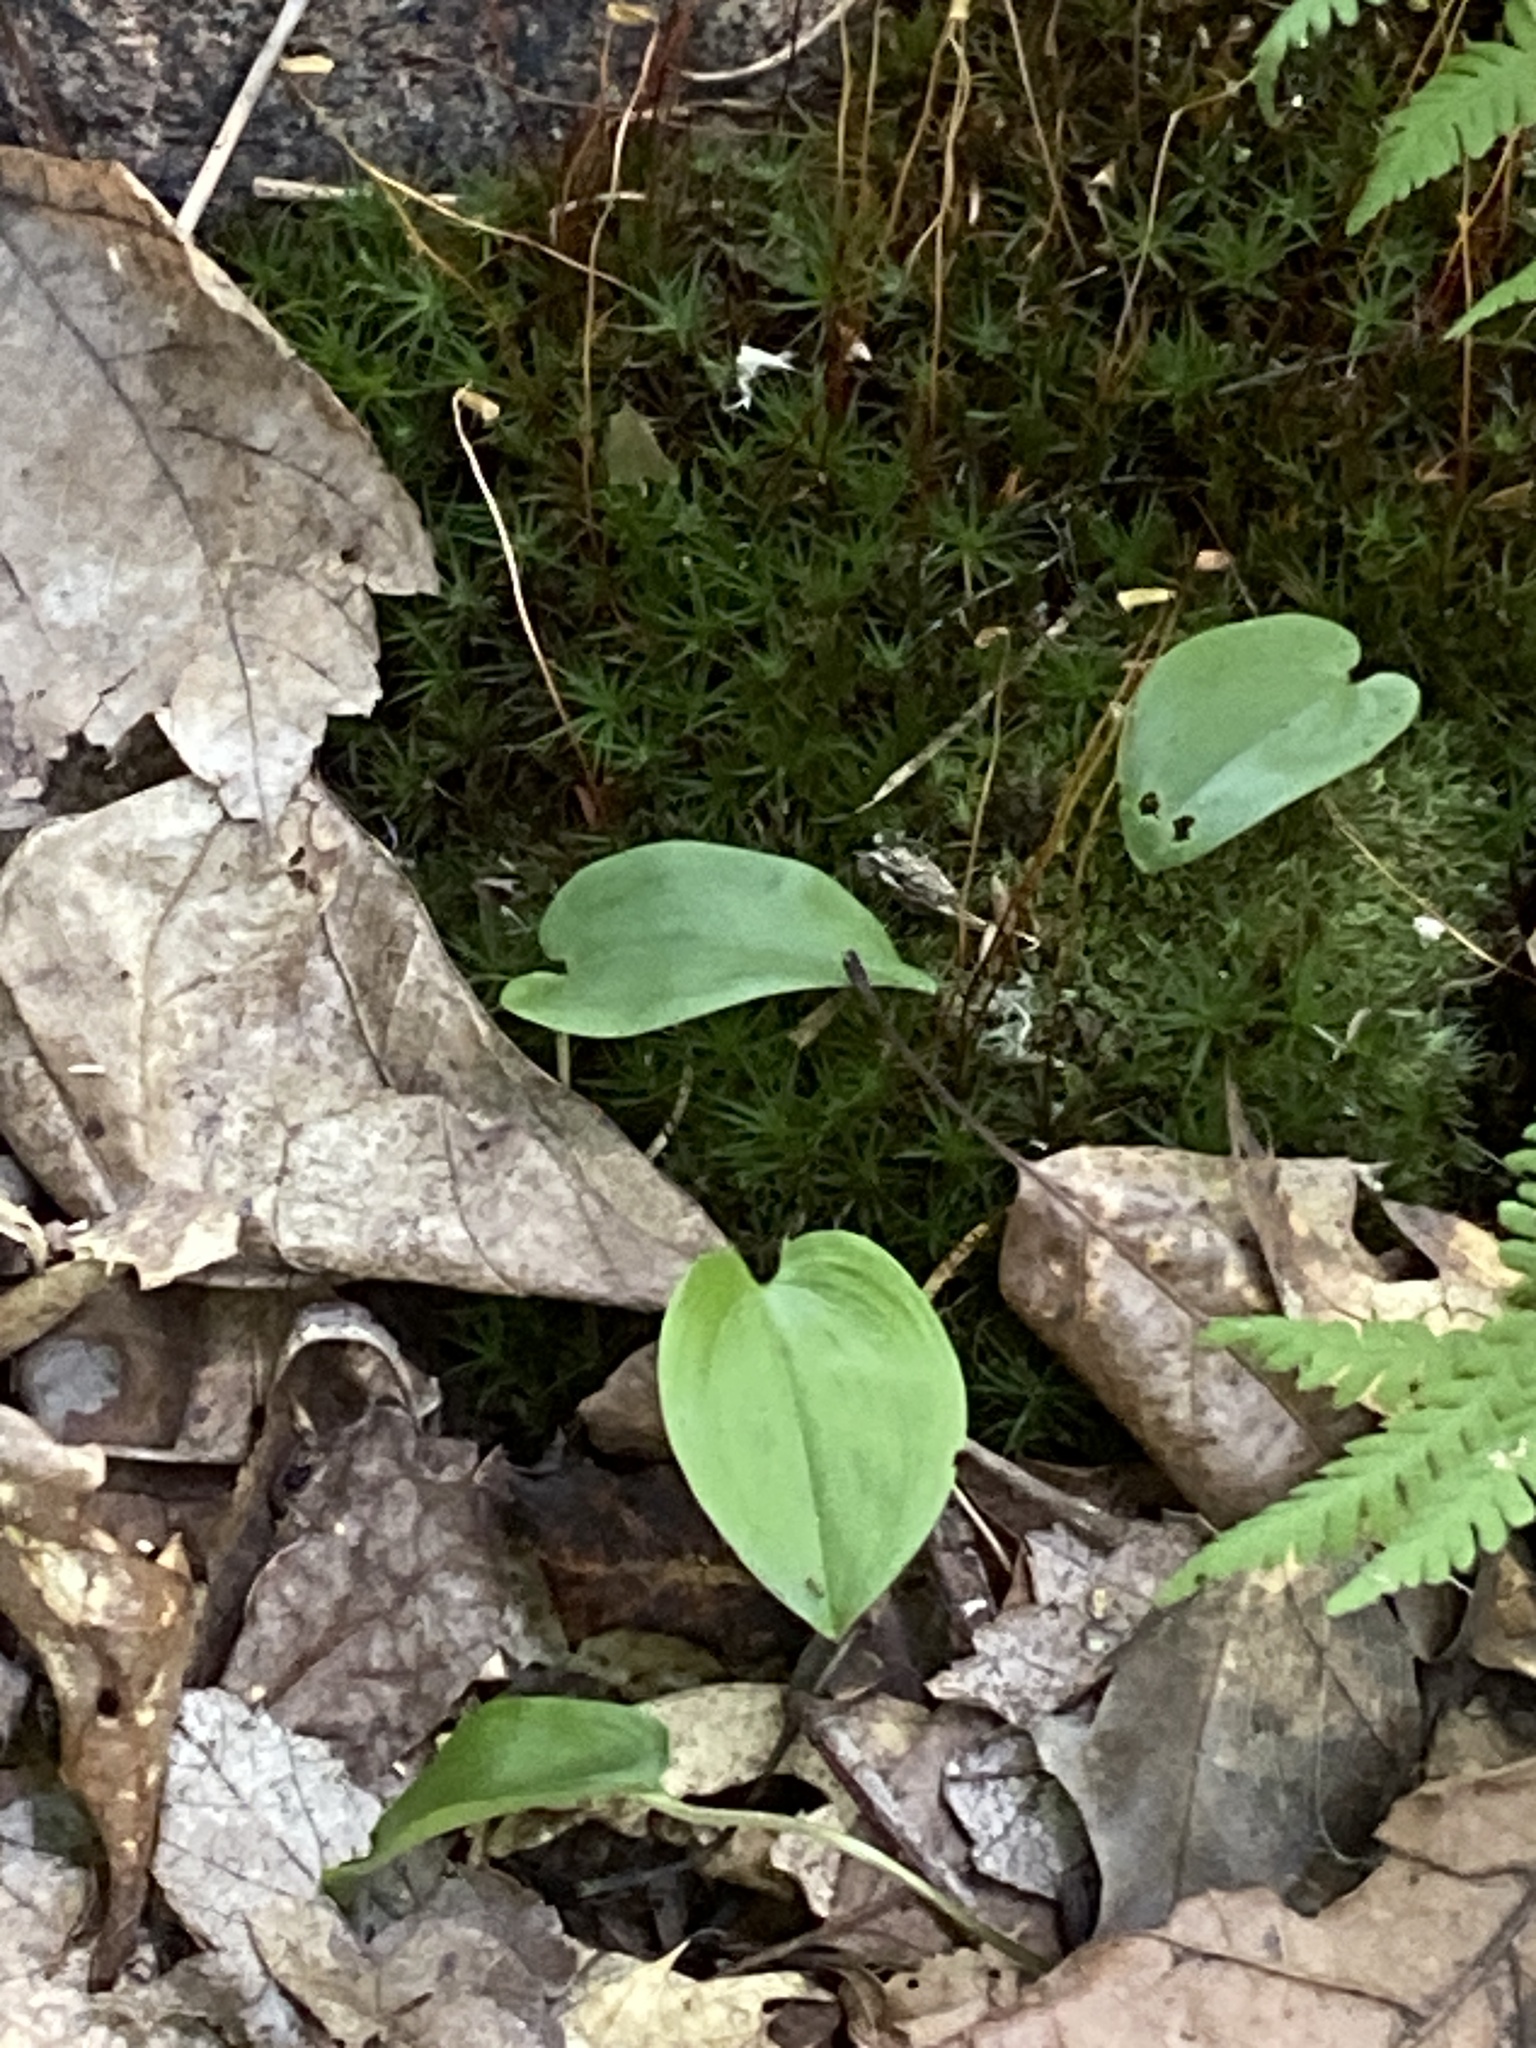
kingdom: Plantae
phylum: Tracheophyta
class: Liliopsida
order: Asparagales
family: Asparagaceae
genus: Maianthemum
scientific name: Maianthemum canadense
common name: False lily-of-the-valley
